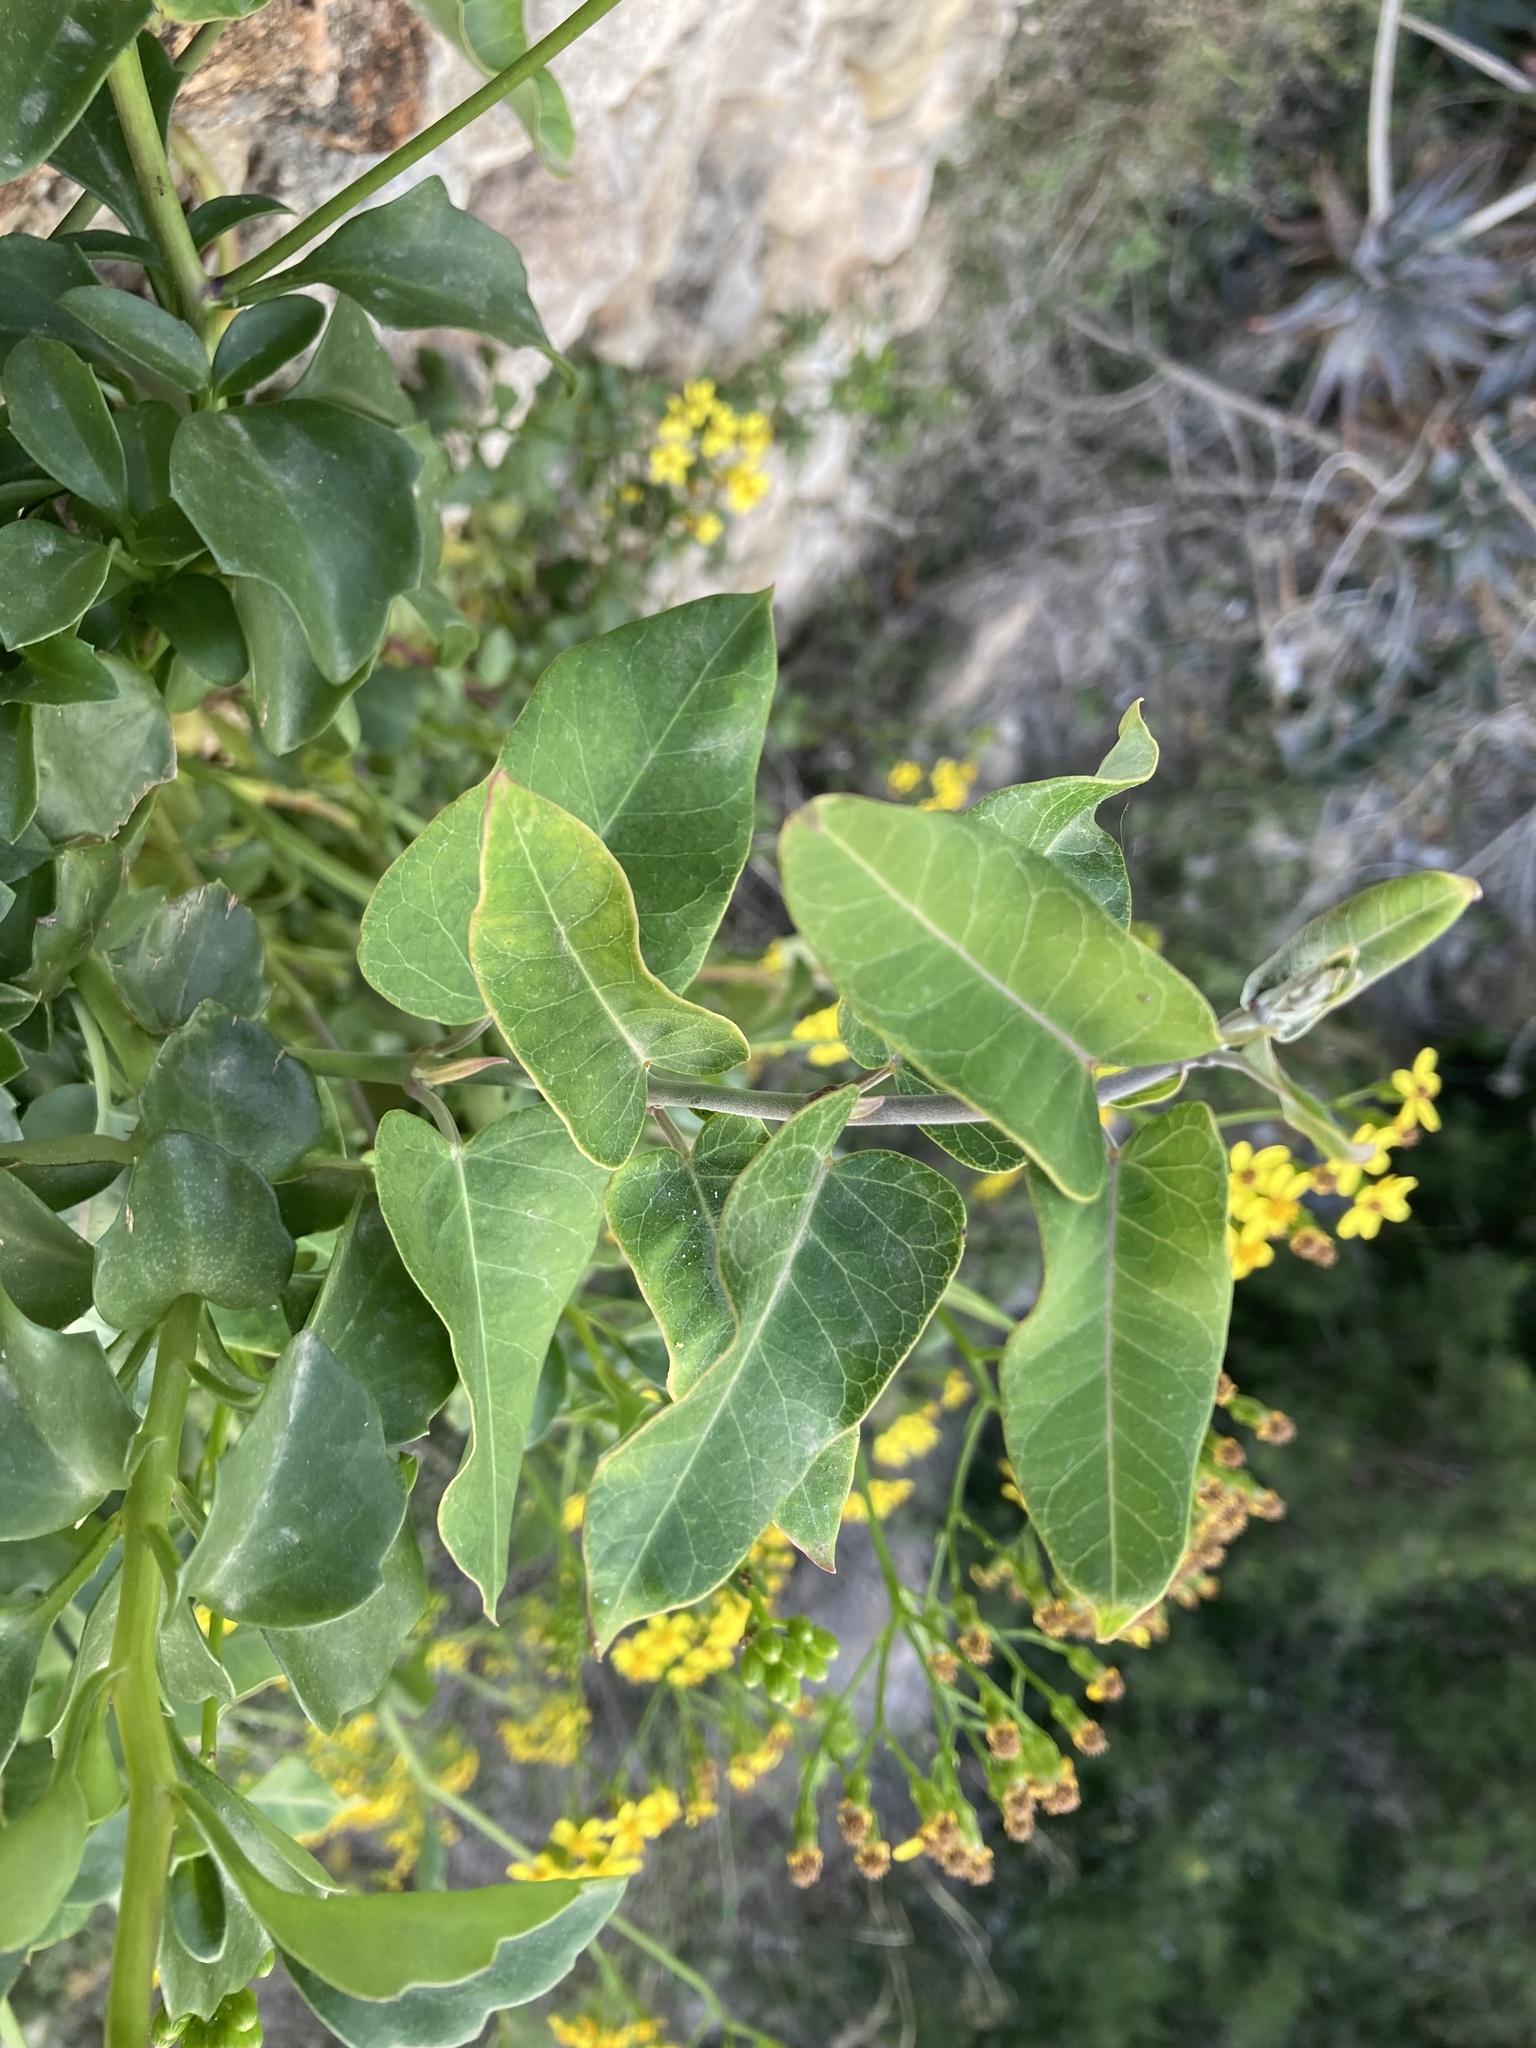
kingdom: Plantae
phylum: Tracheophyta
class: Magnoliopsida
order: Gentianales
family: Apocynaceae
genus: Araujia
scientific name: Araujia sericifera
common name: White bladderflower
